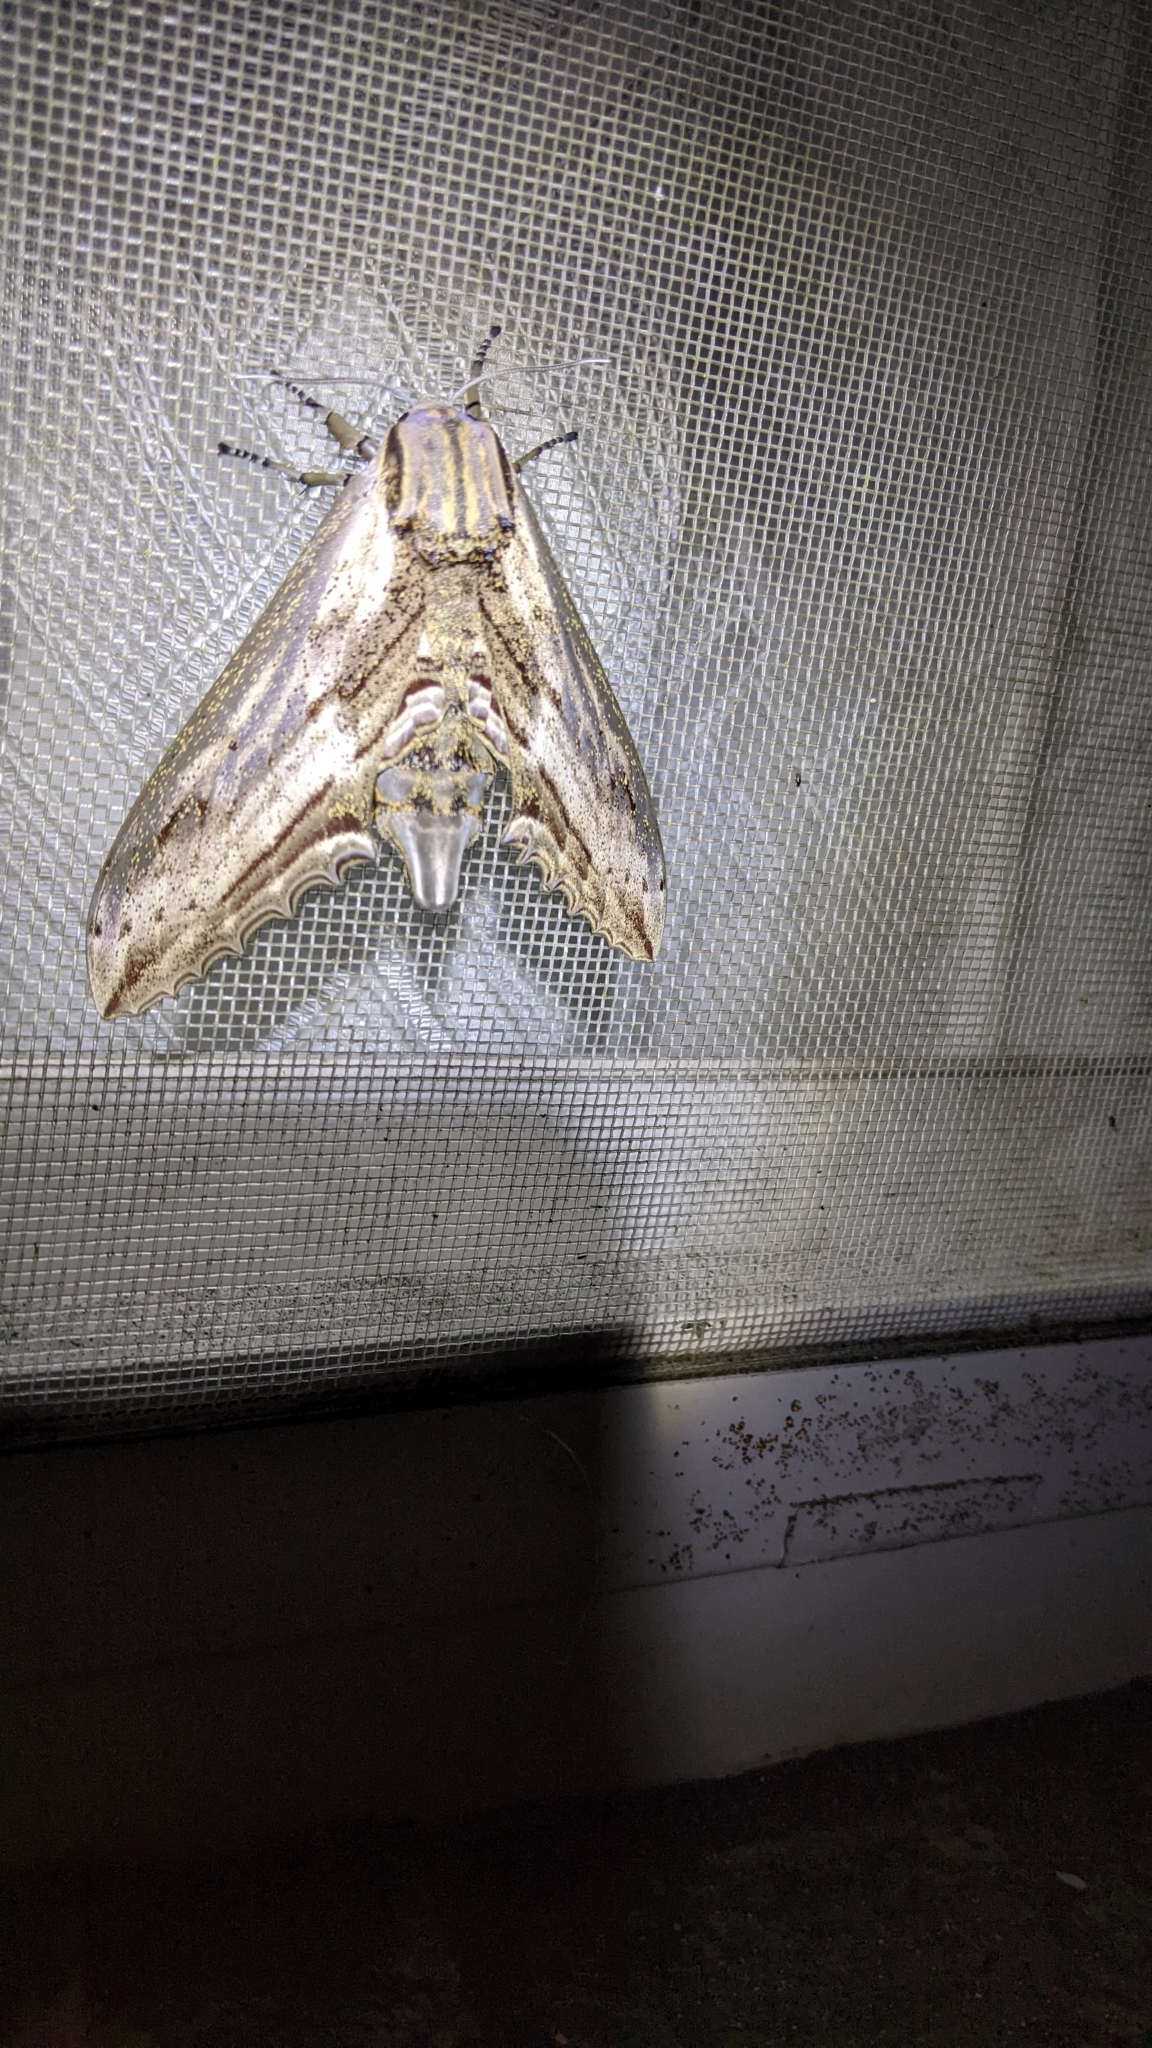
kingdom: Animalia
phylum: Arthropoda
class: Insecta
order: Lepidoptera
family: Sphingidae
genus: Langia
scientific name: Langia zenzeroides
